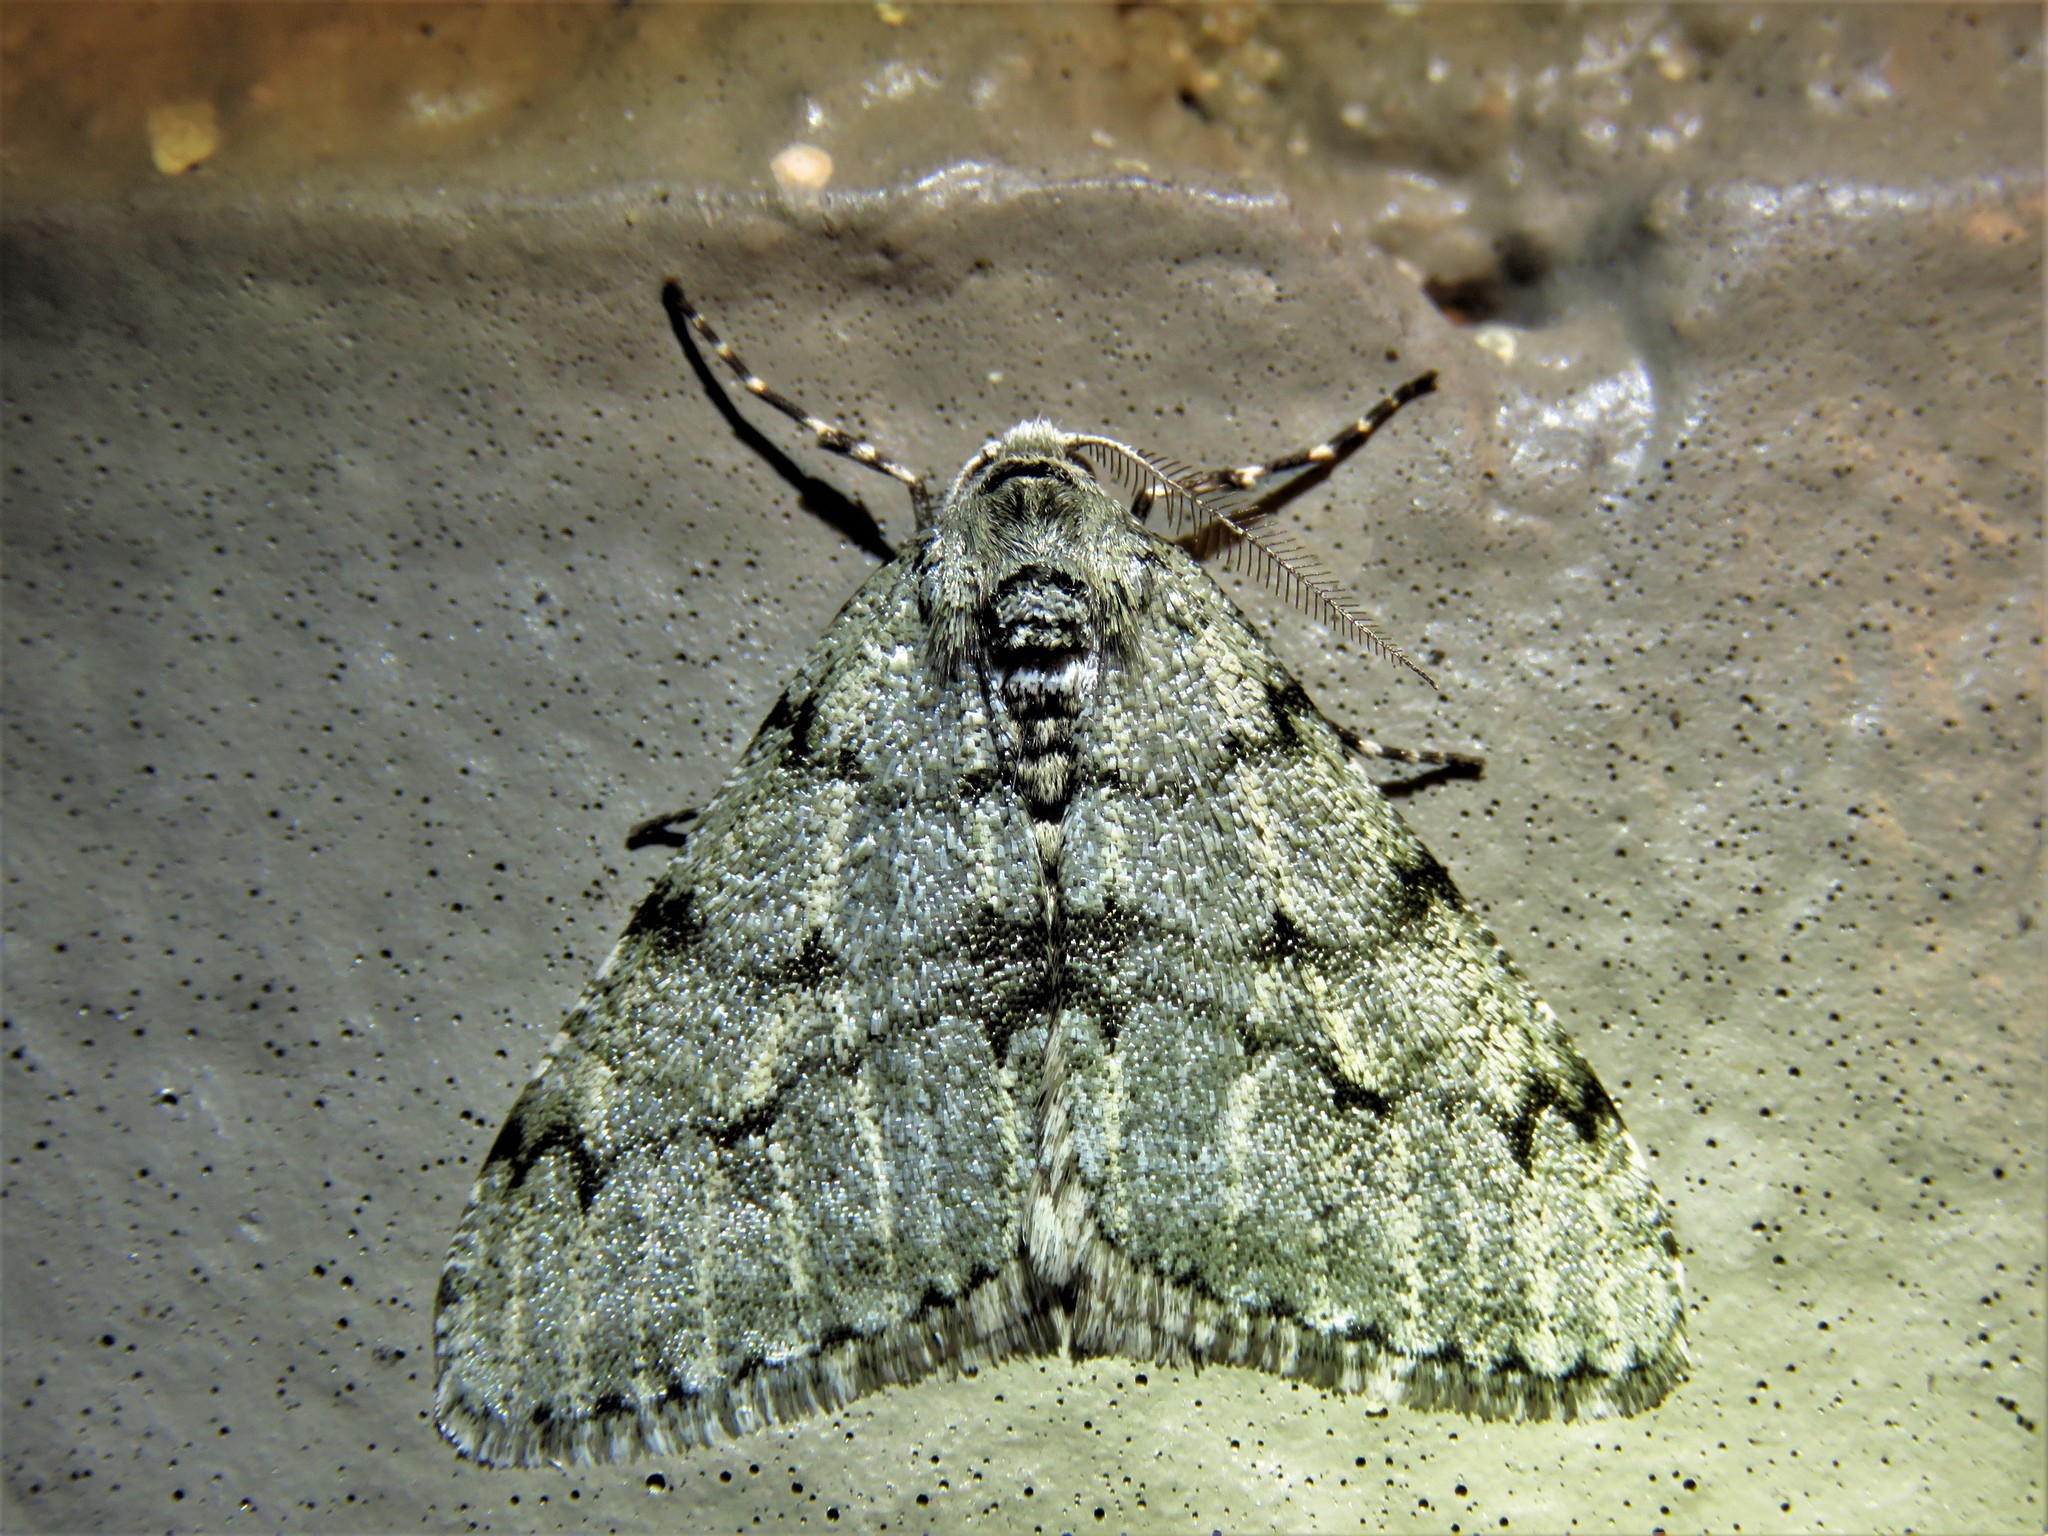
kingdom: Animalia
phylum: Arthropoda
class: Insecta
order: Lepidoptera
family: Geometridae
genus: Phigalia
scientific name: Phigalia strigataria
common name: Small phigalia
